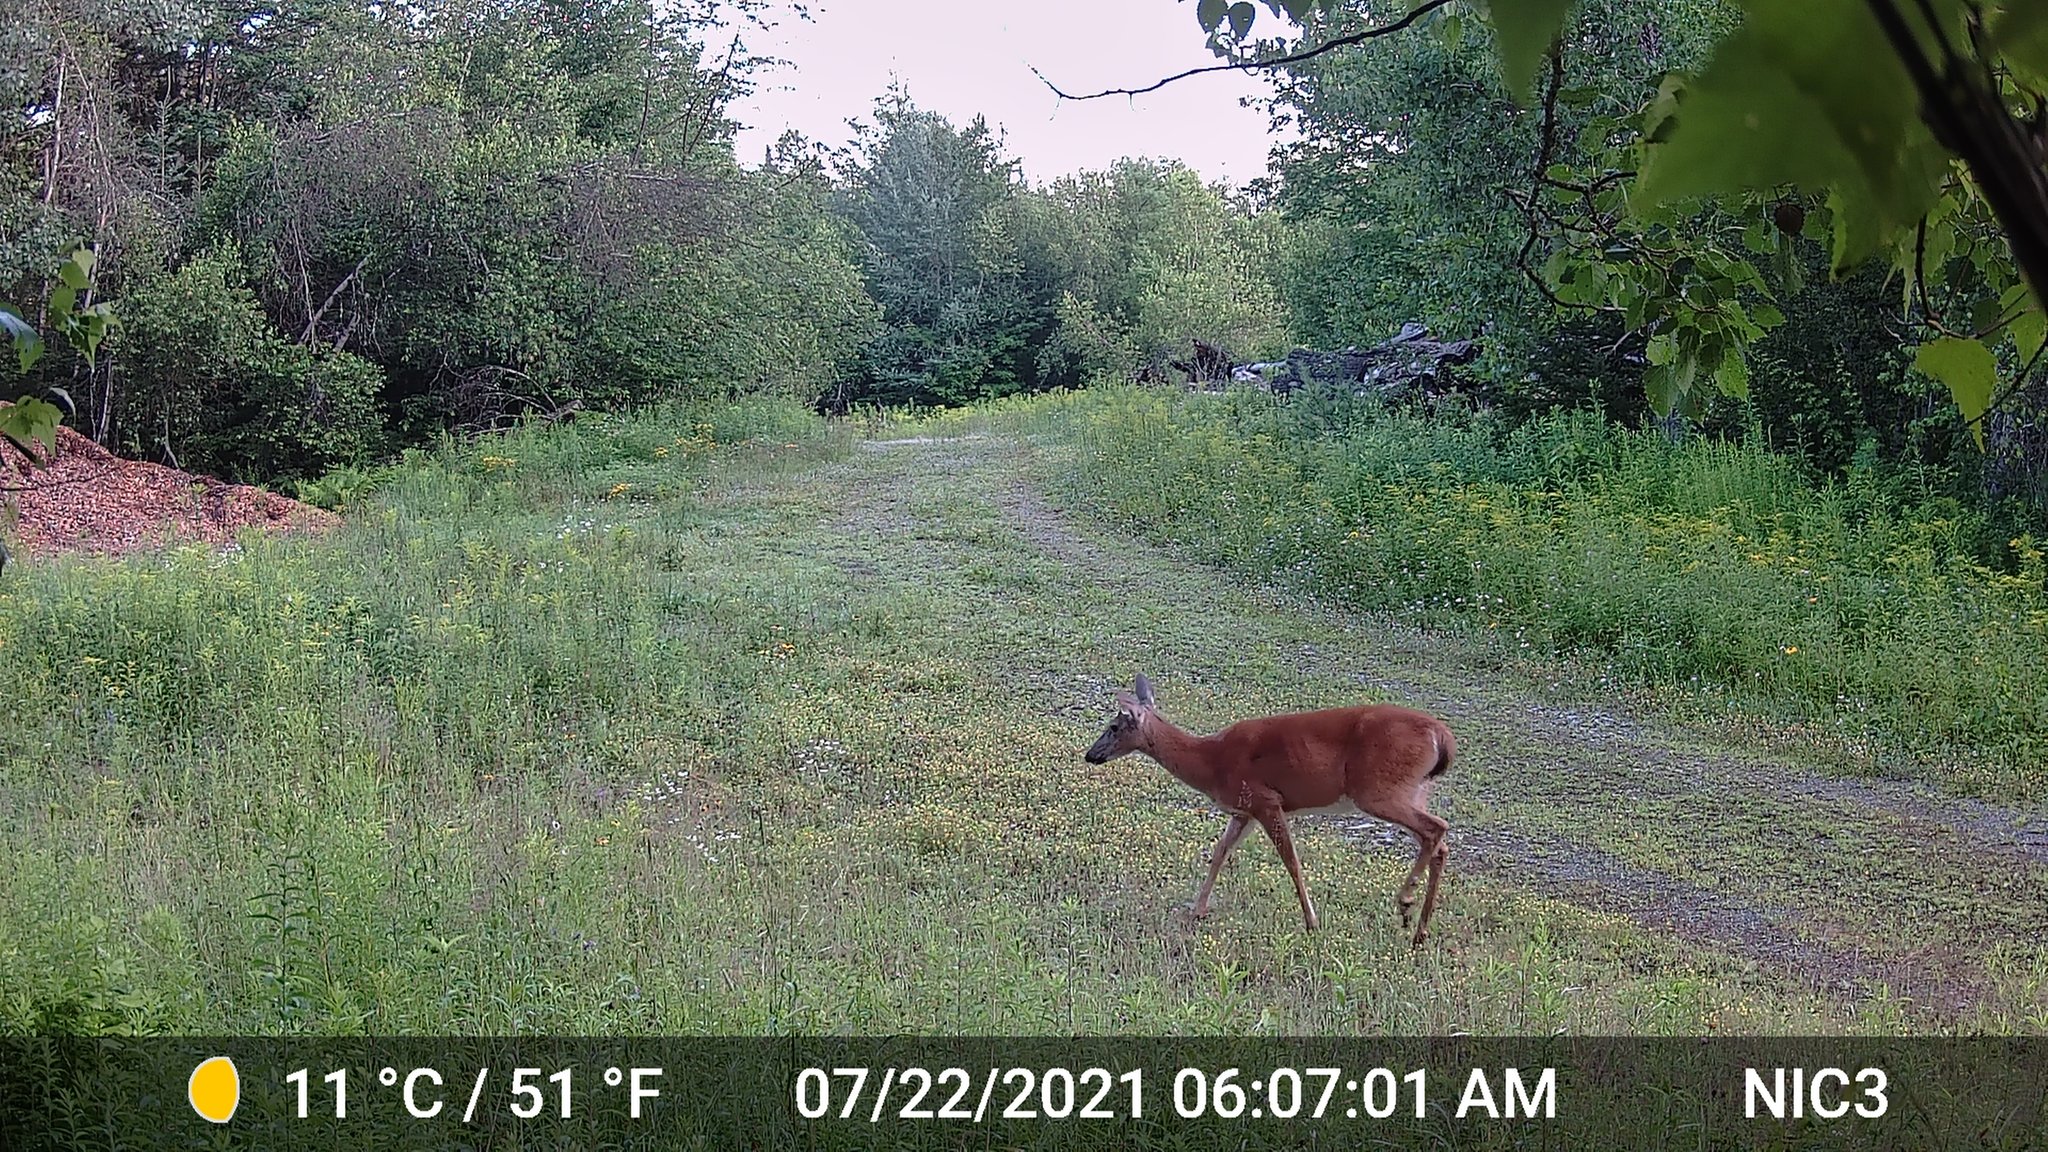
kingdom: Animalia
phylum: Chordata
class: Mammalia
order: Artiodactyla
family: Cervidae
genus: Odocoileus
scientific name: Odocoileus virginianus
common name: White-tailed deer
